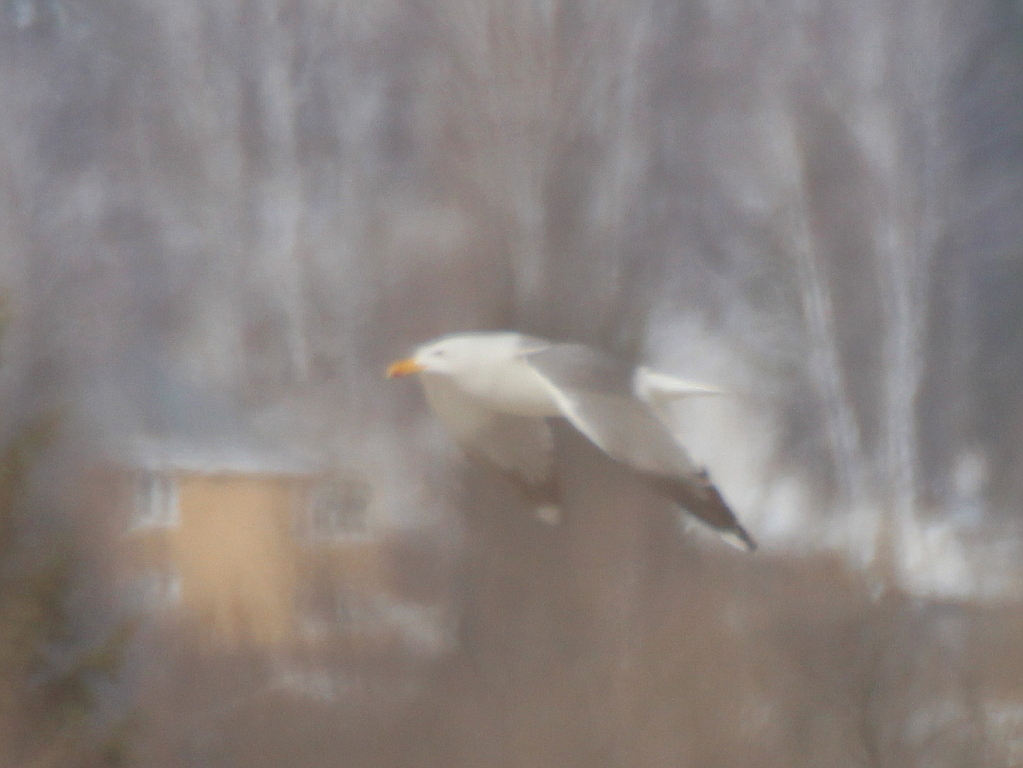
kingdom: Animalia
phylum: Chordata
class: Aves
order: Charadriiformes
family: Laridae
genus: Larus
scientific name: Larus fuscus
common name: Lesser black-backed gull
